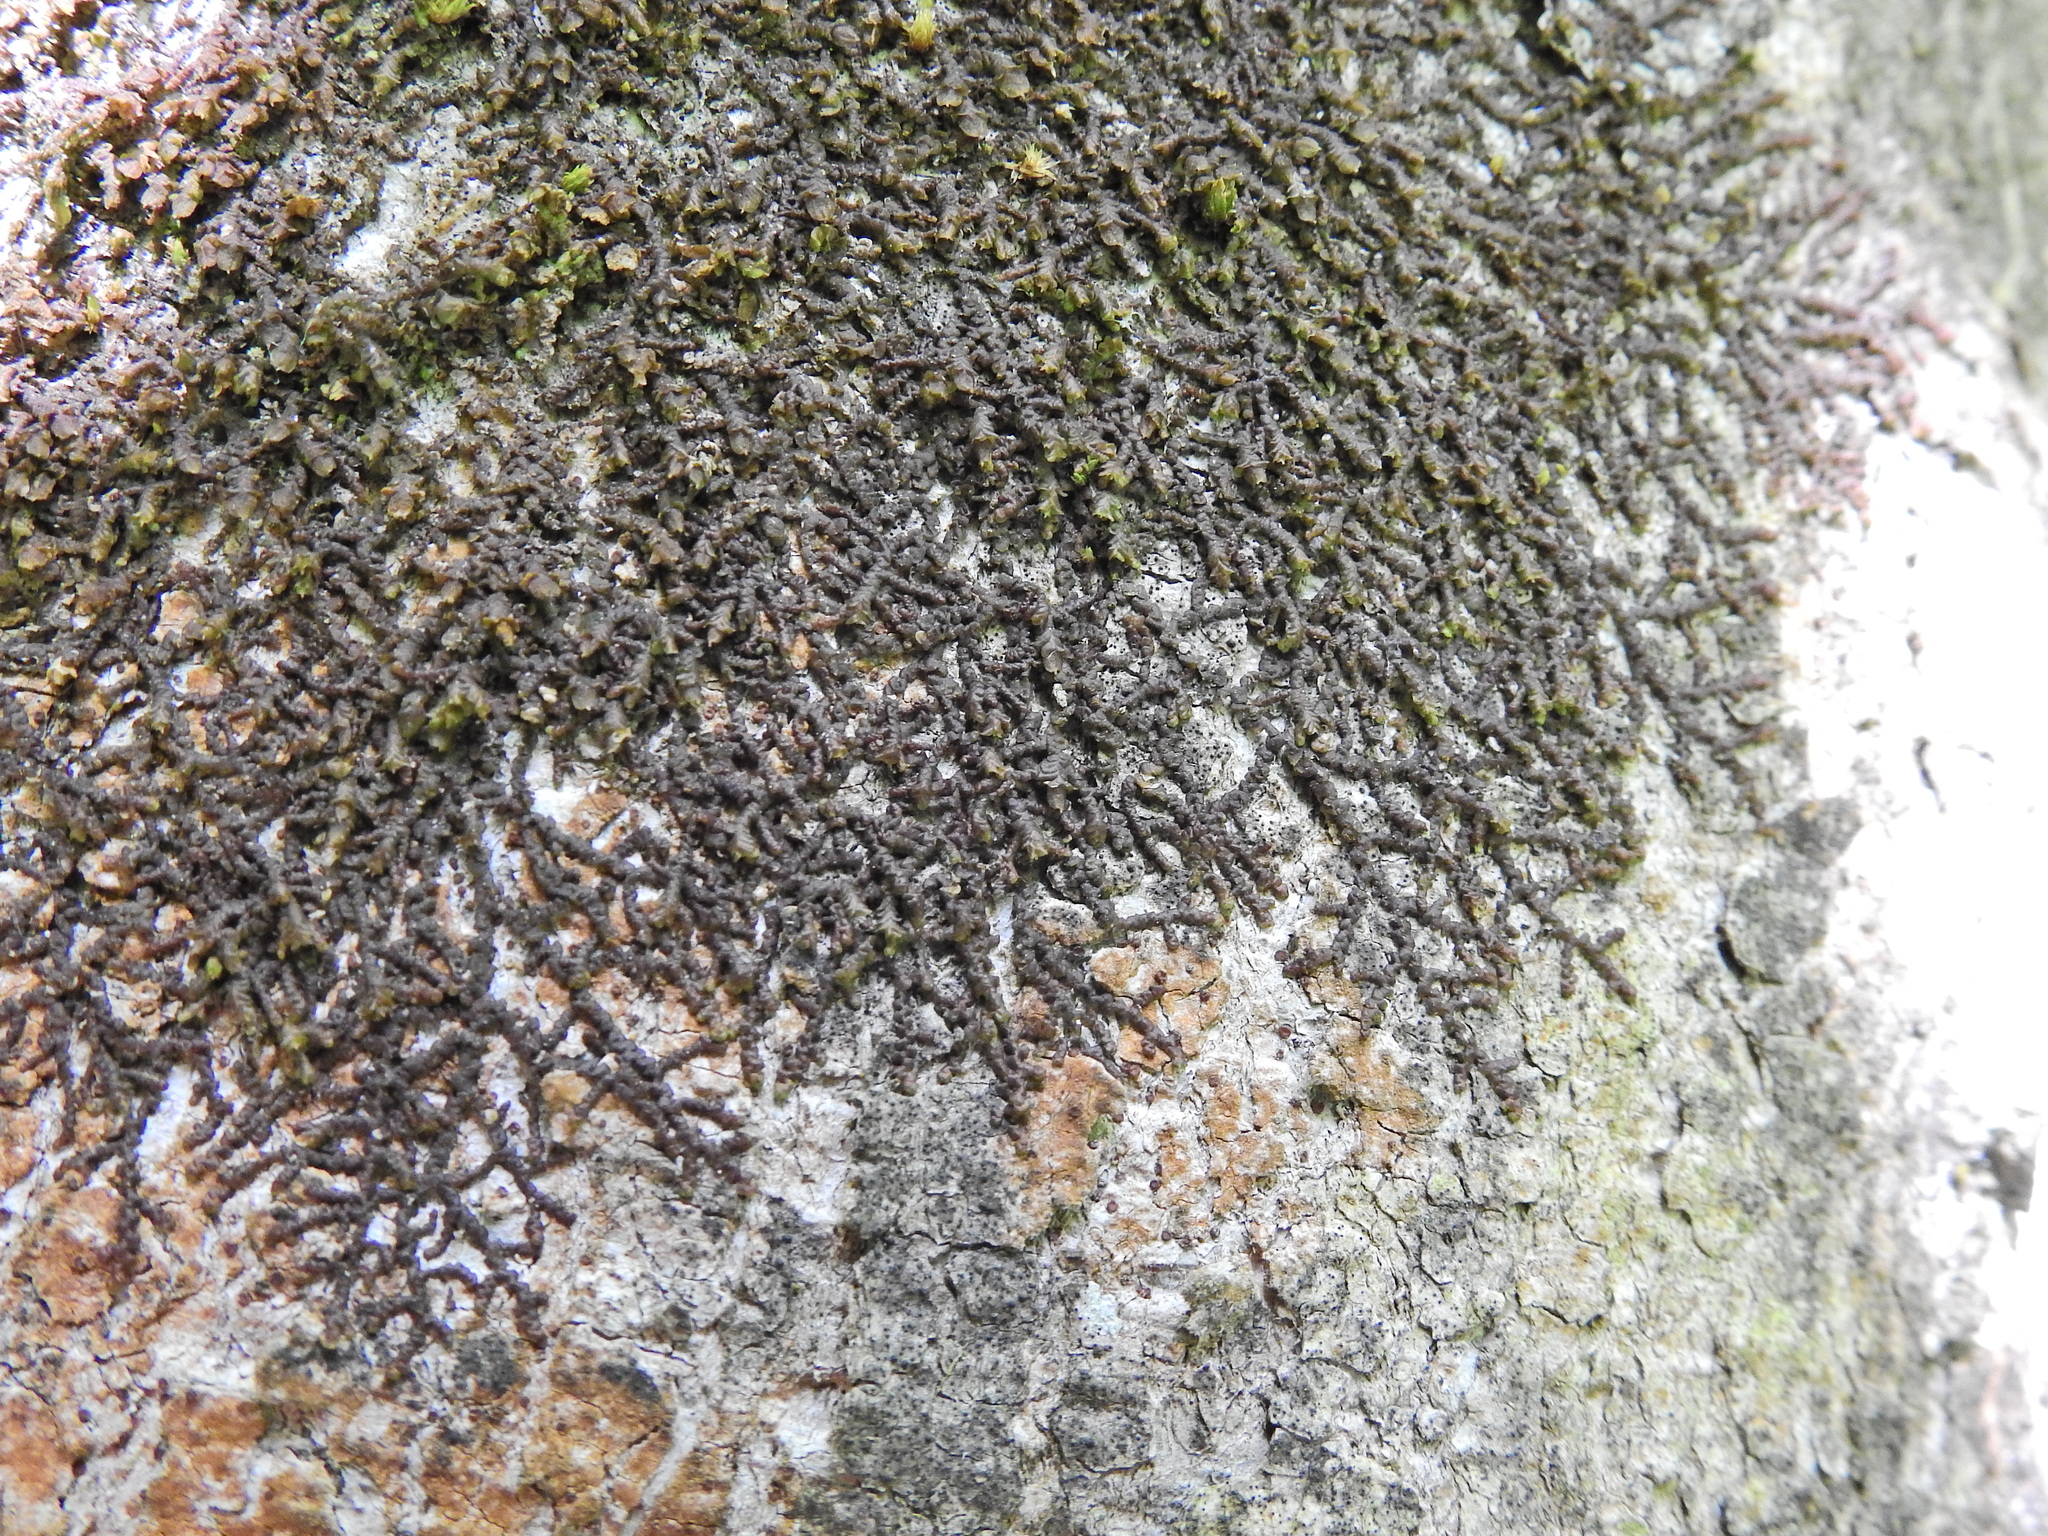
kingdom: Plantae
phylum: Marchantiophyta
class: Jungermanniopsida
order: Porellales
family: Frullaniaceae
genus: Frullania
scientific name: Frullania dilatata
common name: Dilated scalewort
